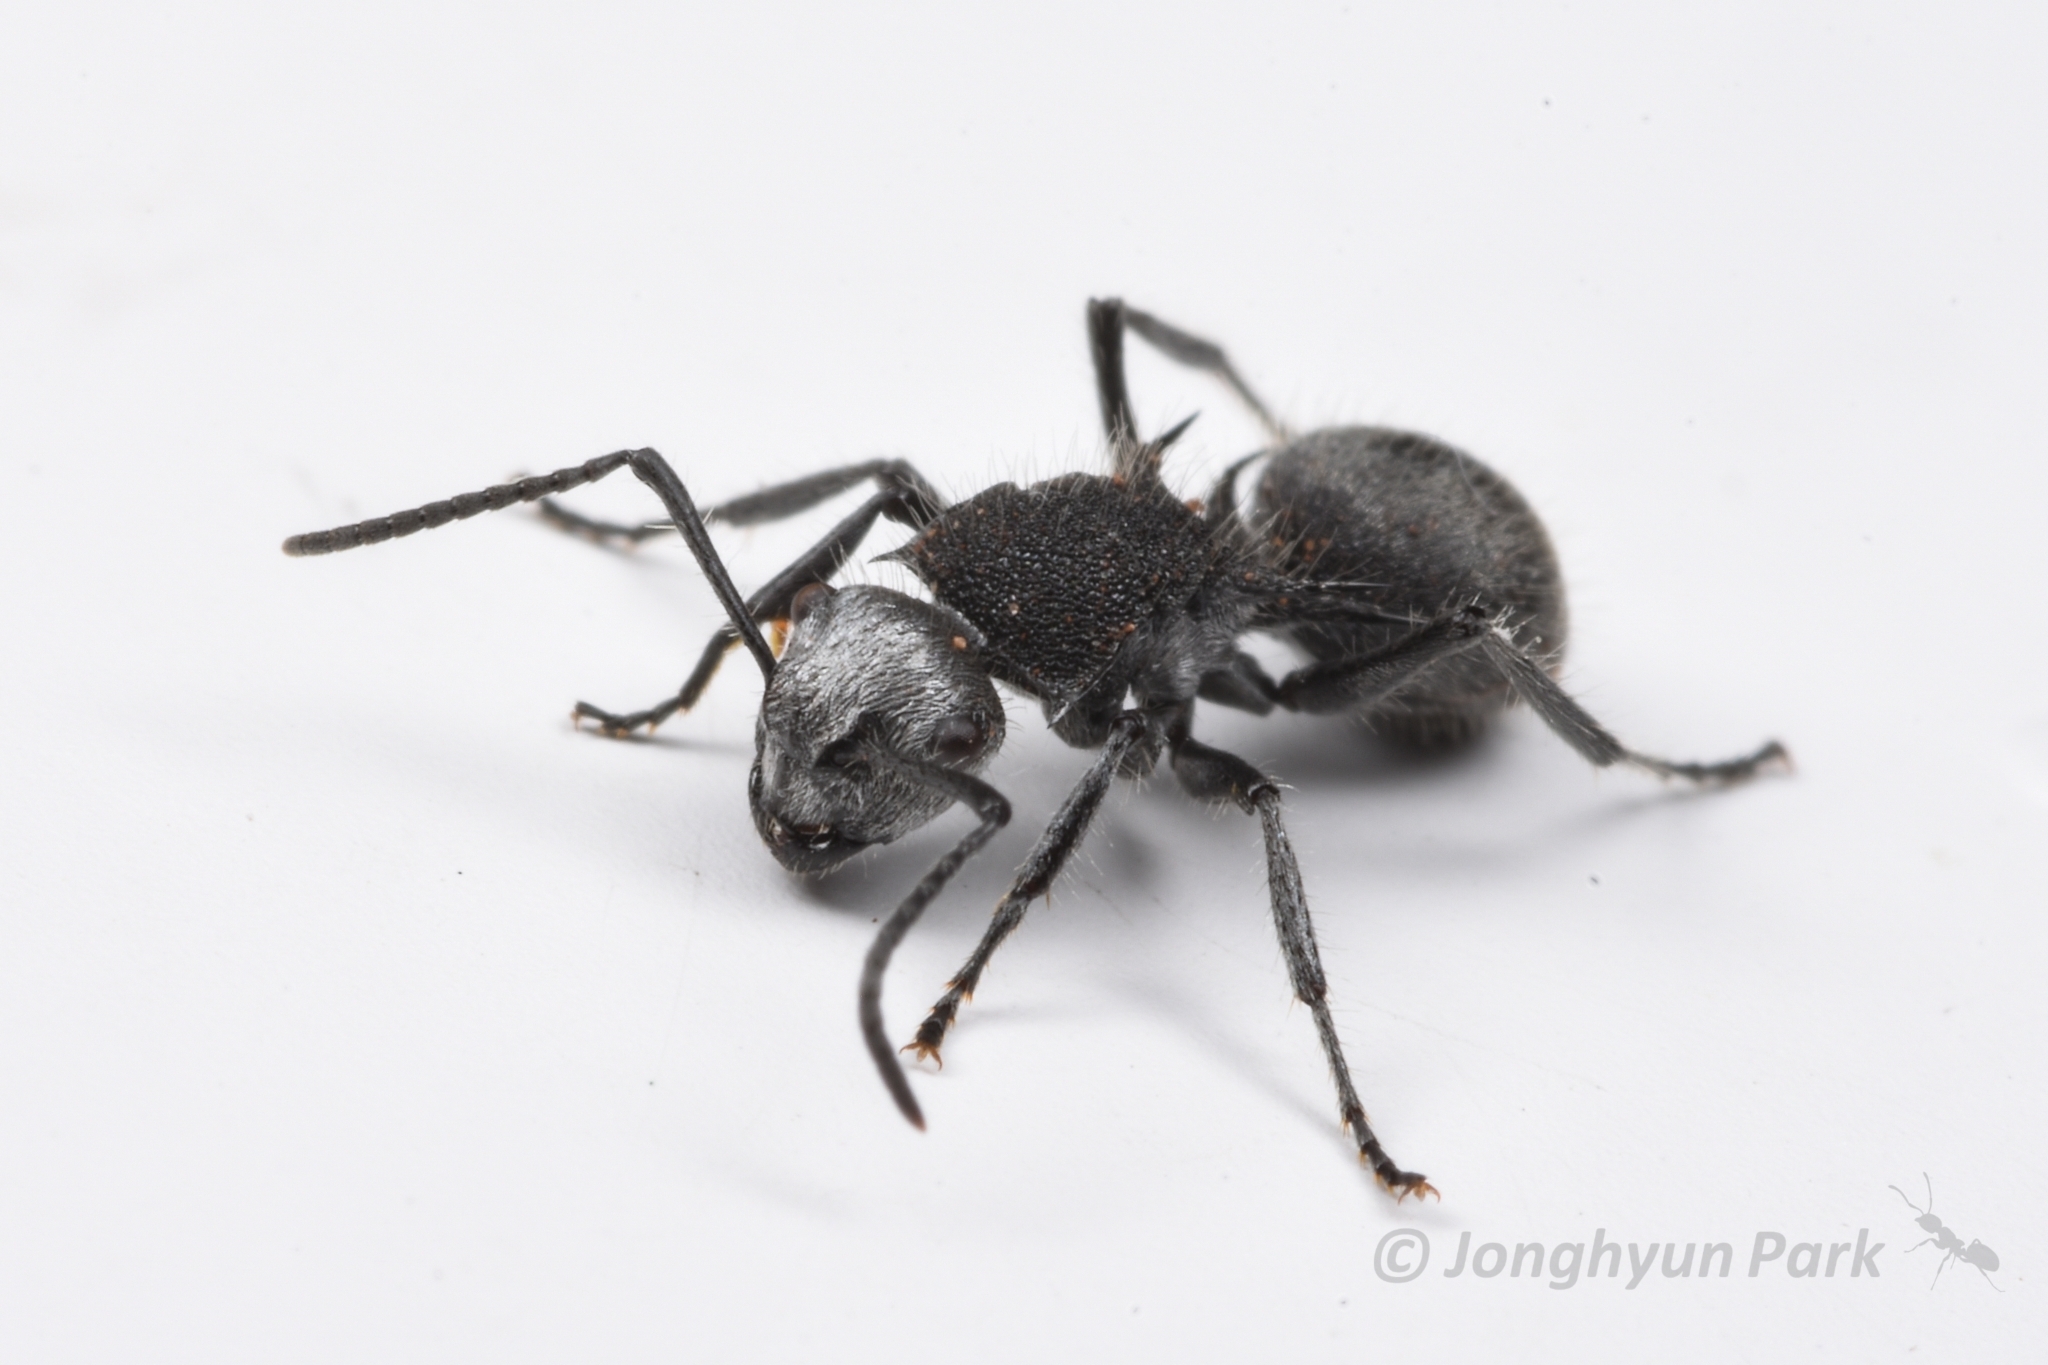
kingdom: Animalia
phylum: Arthropoda
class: Insecta
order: Hymenoptera
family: Formicidae
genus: Polyrhachis
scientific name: Polyrhachis senilis
